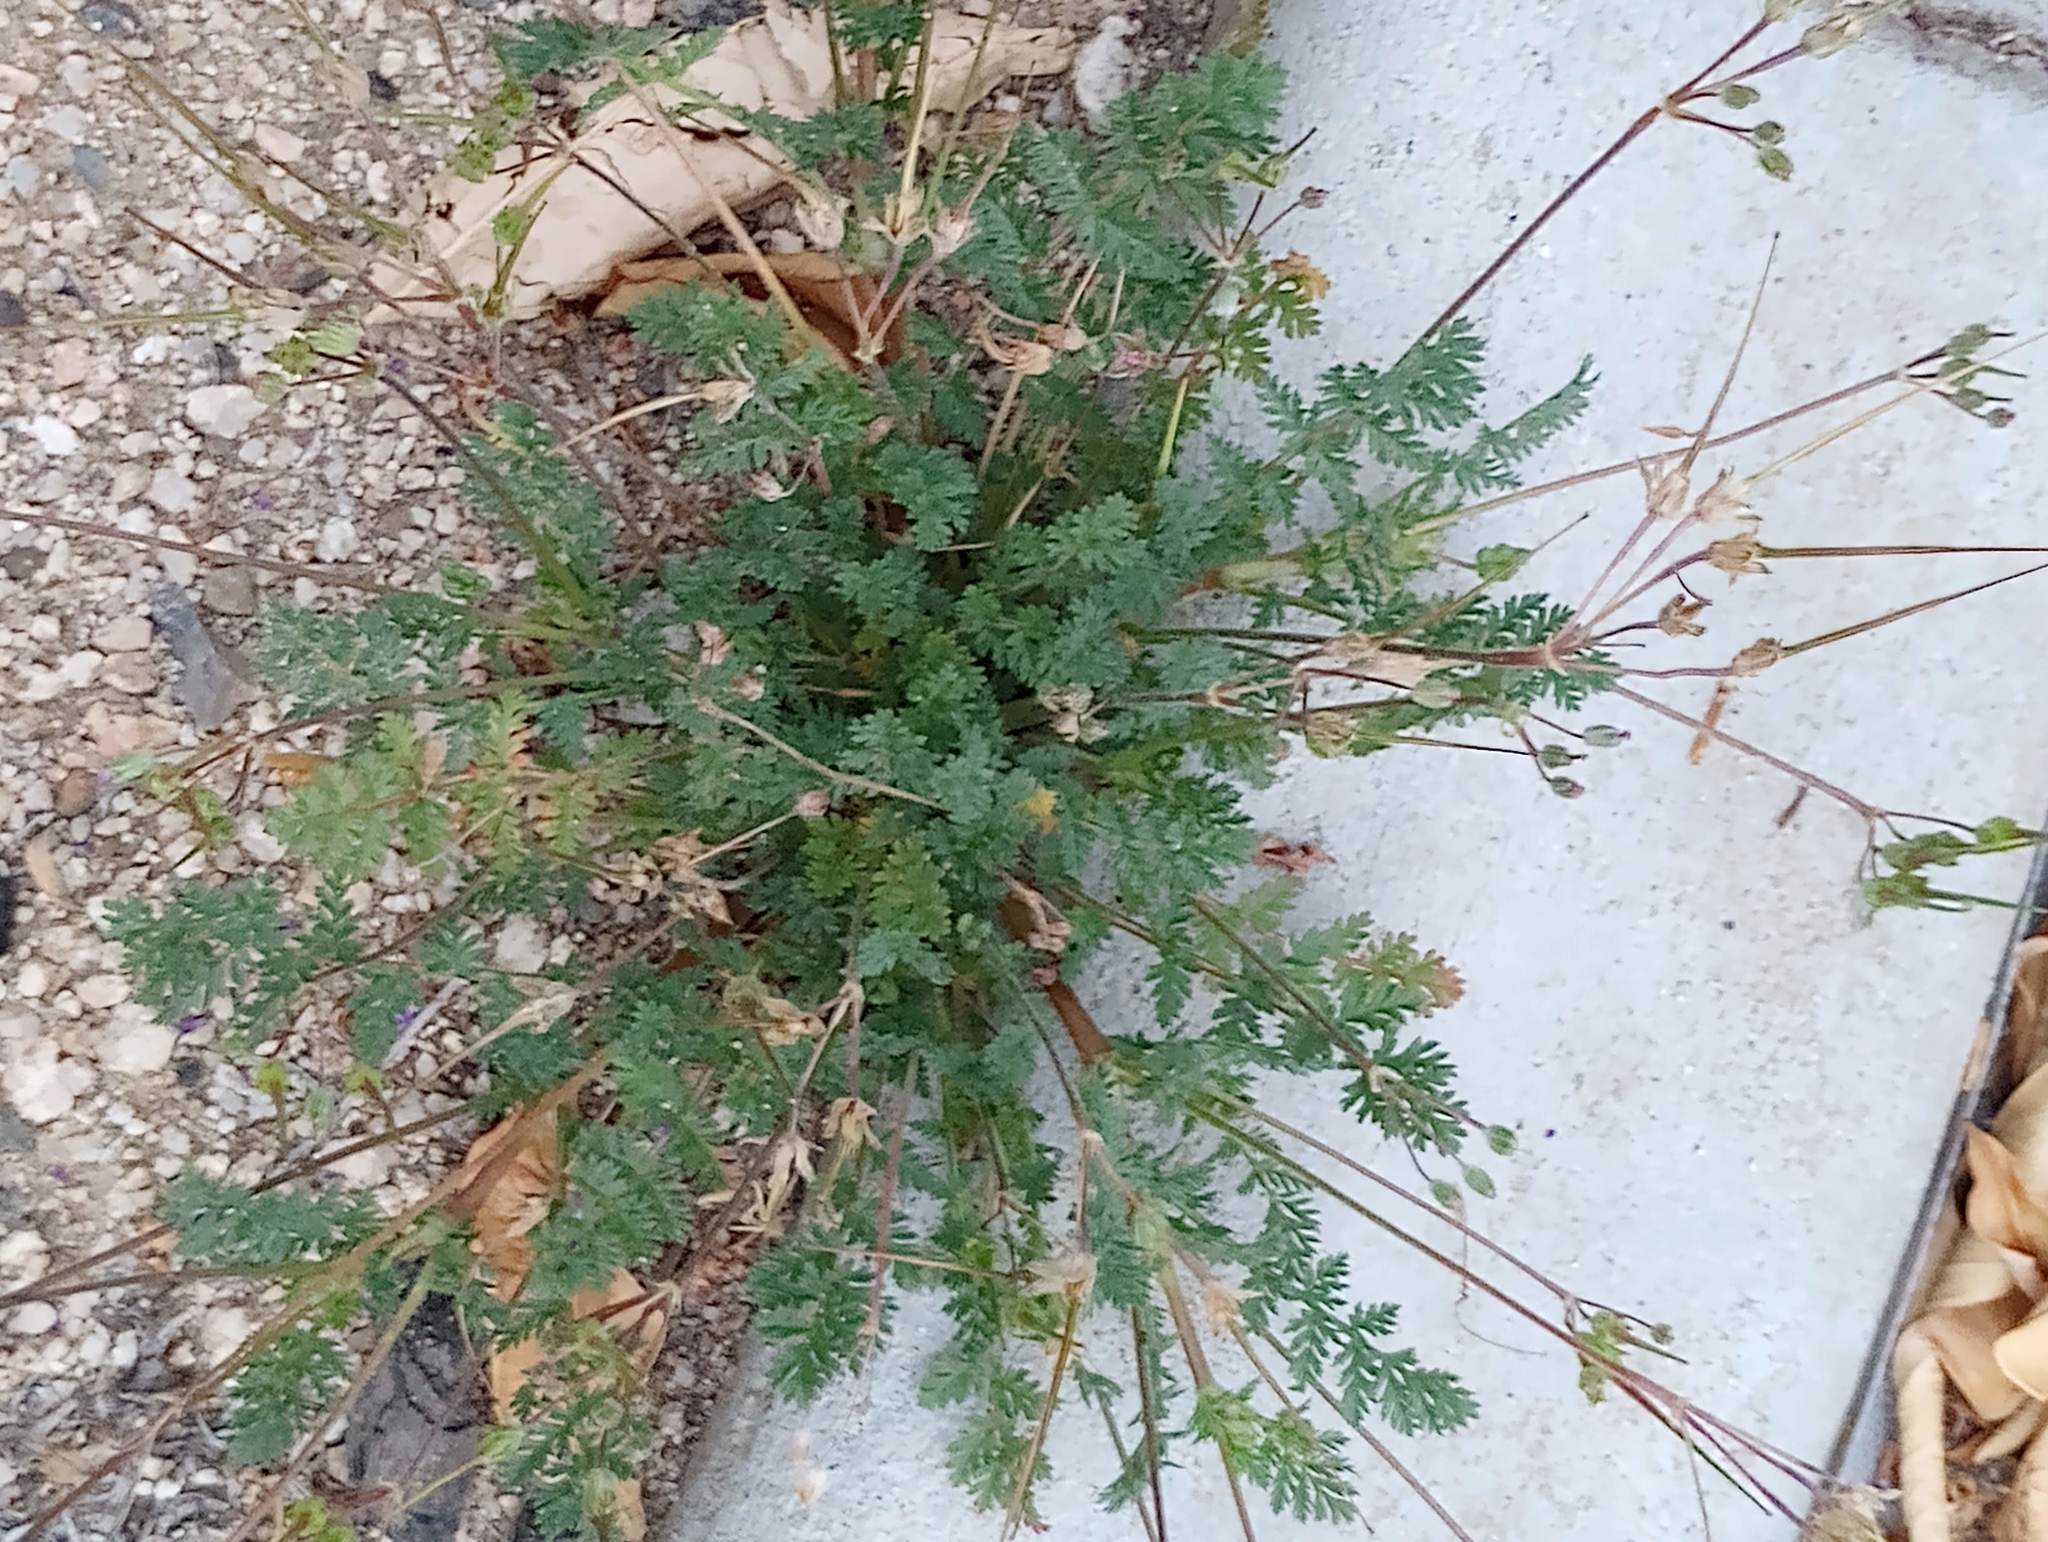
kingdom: Plantae
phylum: Tracheophyta
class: Magnoliopsida
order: Geraniales
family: Geraniaceae
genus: Erodium
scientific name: Erodium cicutarium
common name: Common stork's-bill
